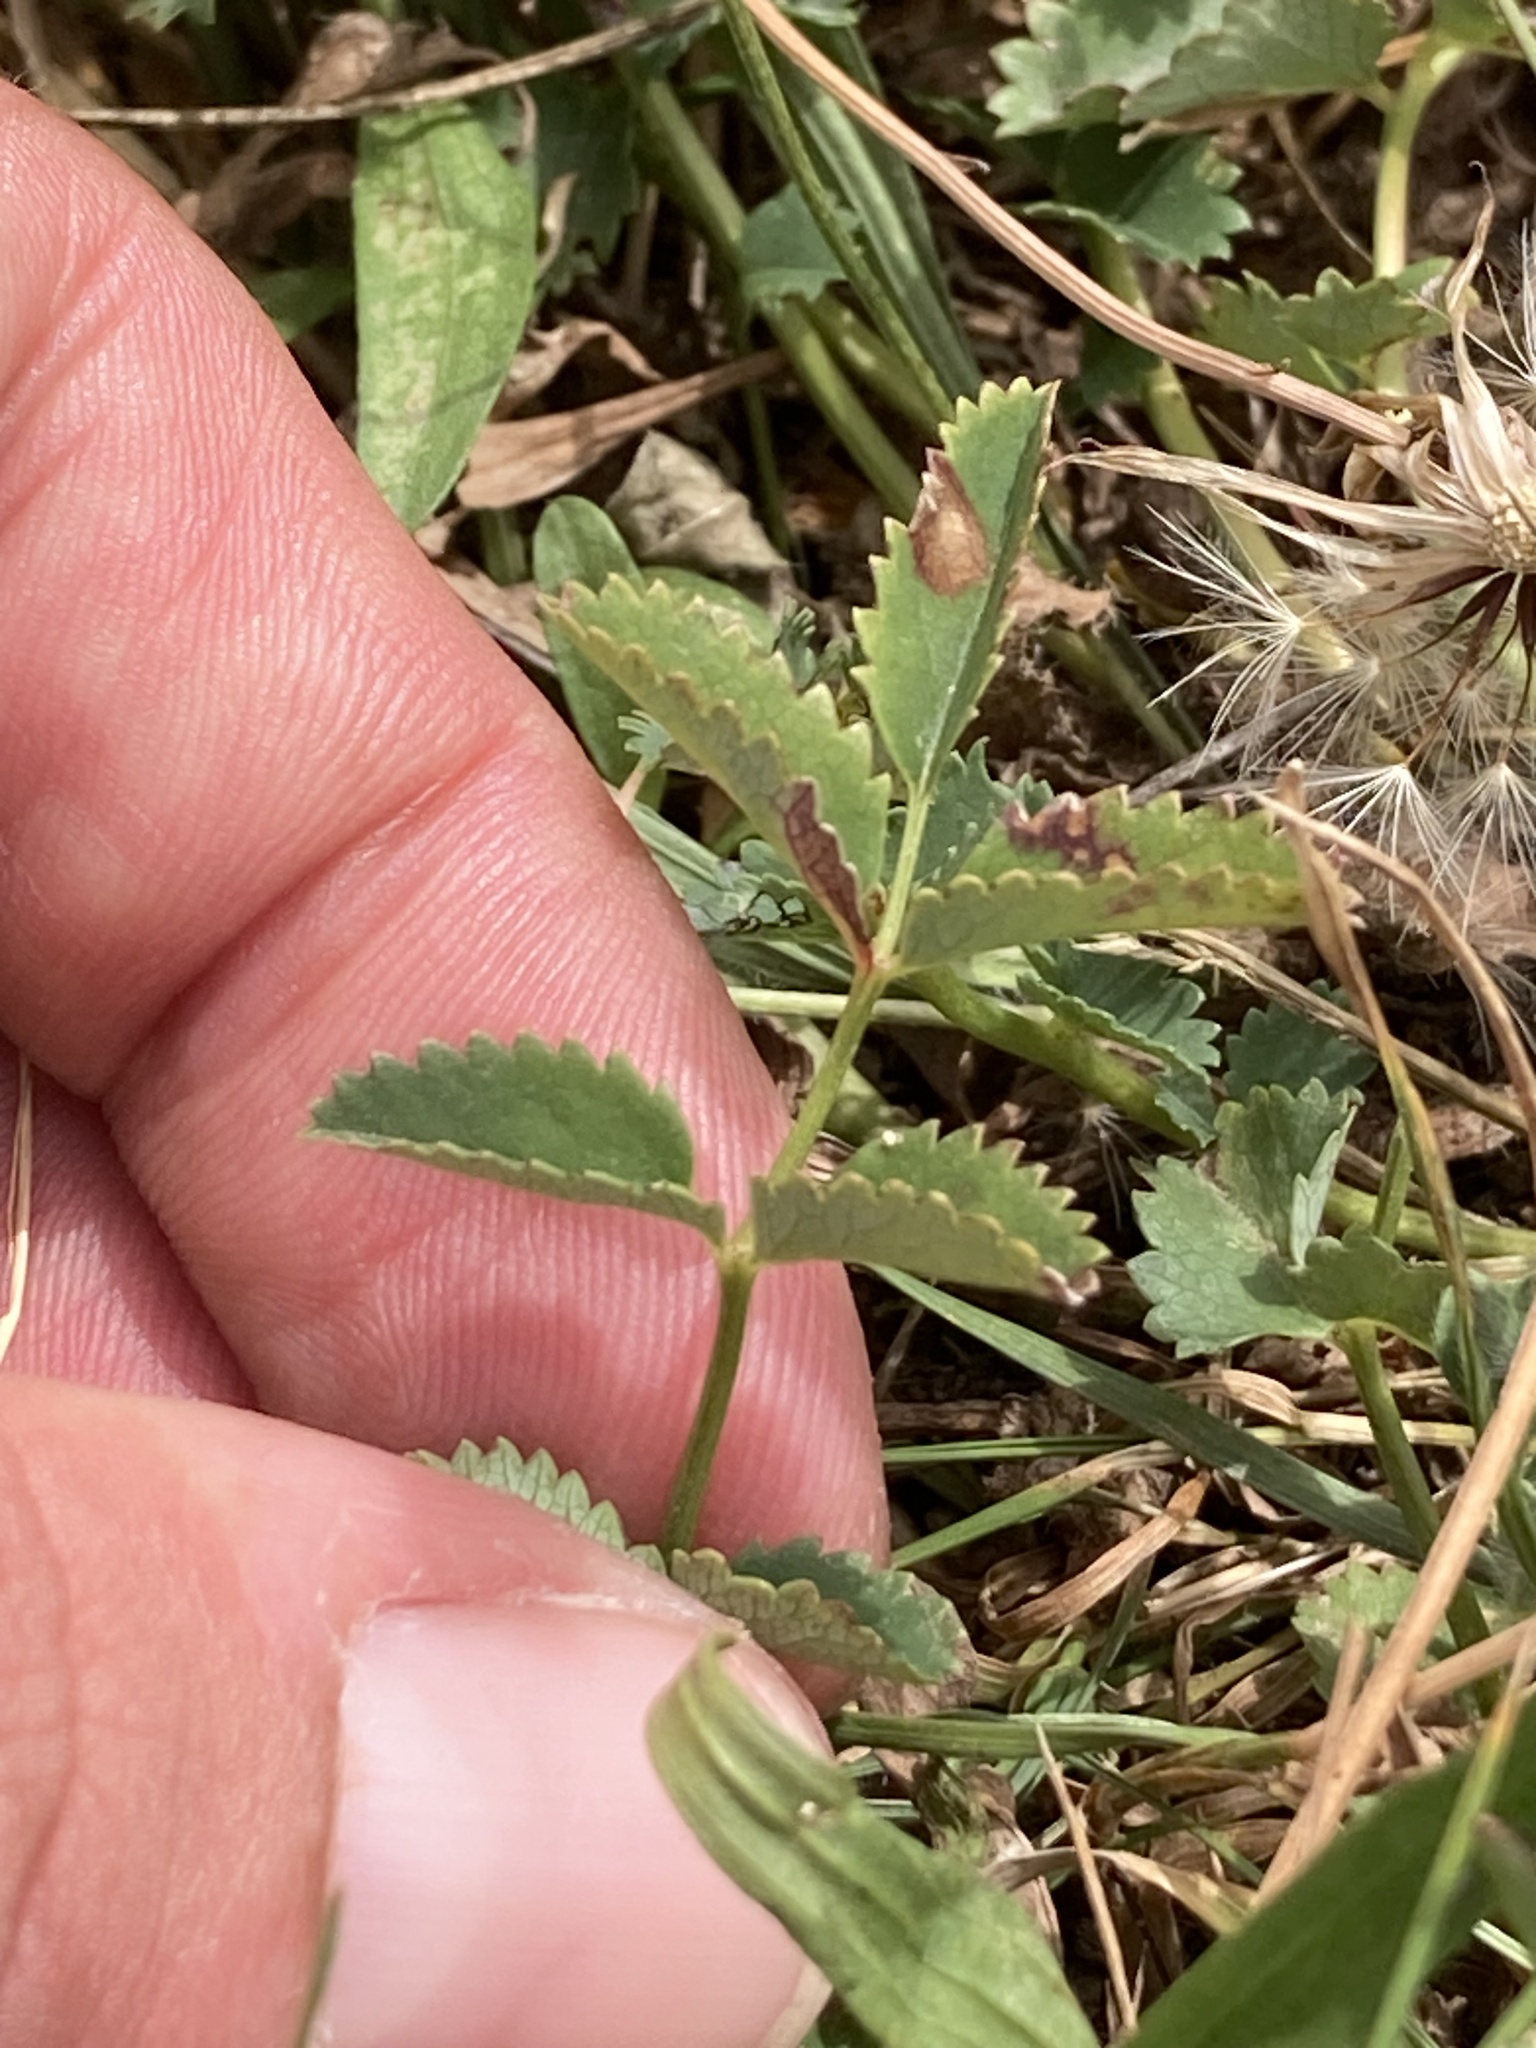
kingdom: Plantae
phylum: Tracheophyta
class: Magnoliopsida
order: Rosales
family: Rosaceae
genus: Sanguisorba
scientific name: Sanguisorba officinalis
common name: Great burnet
